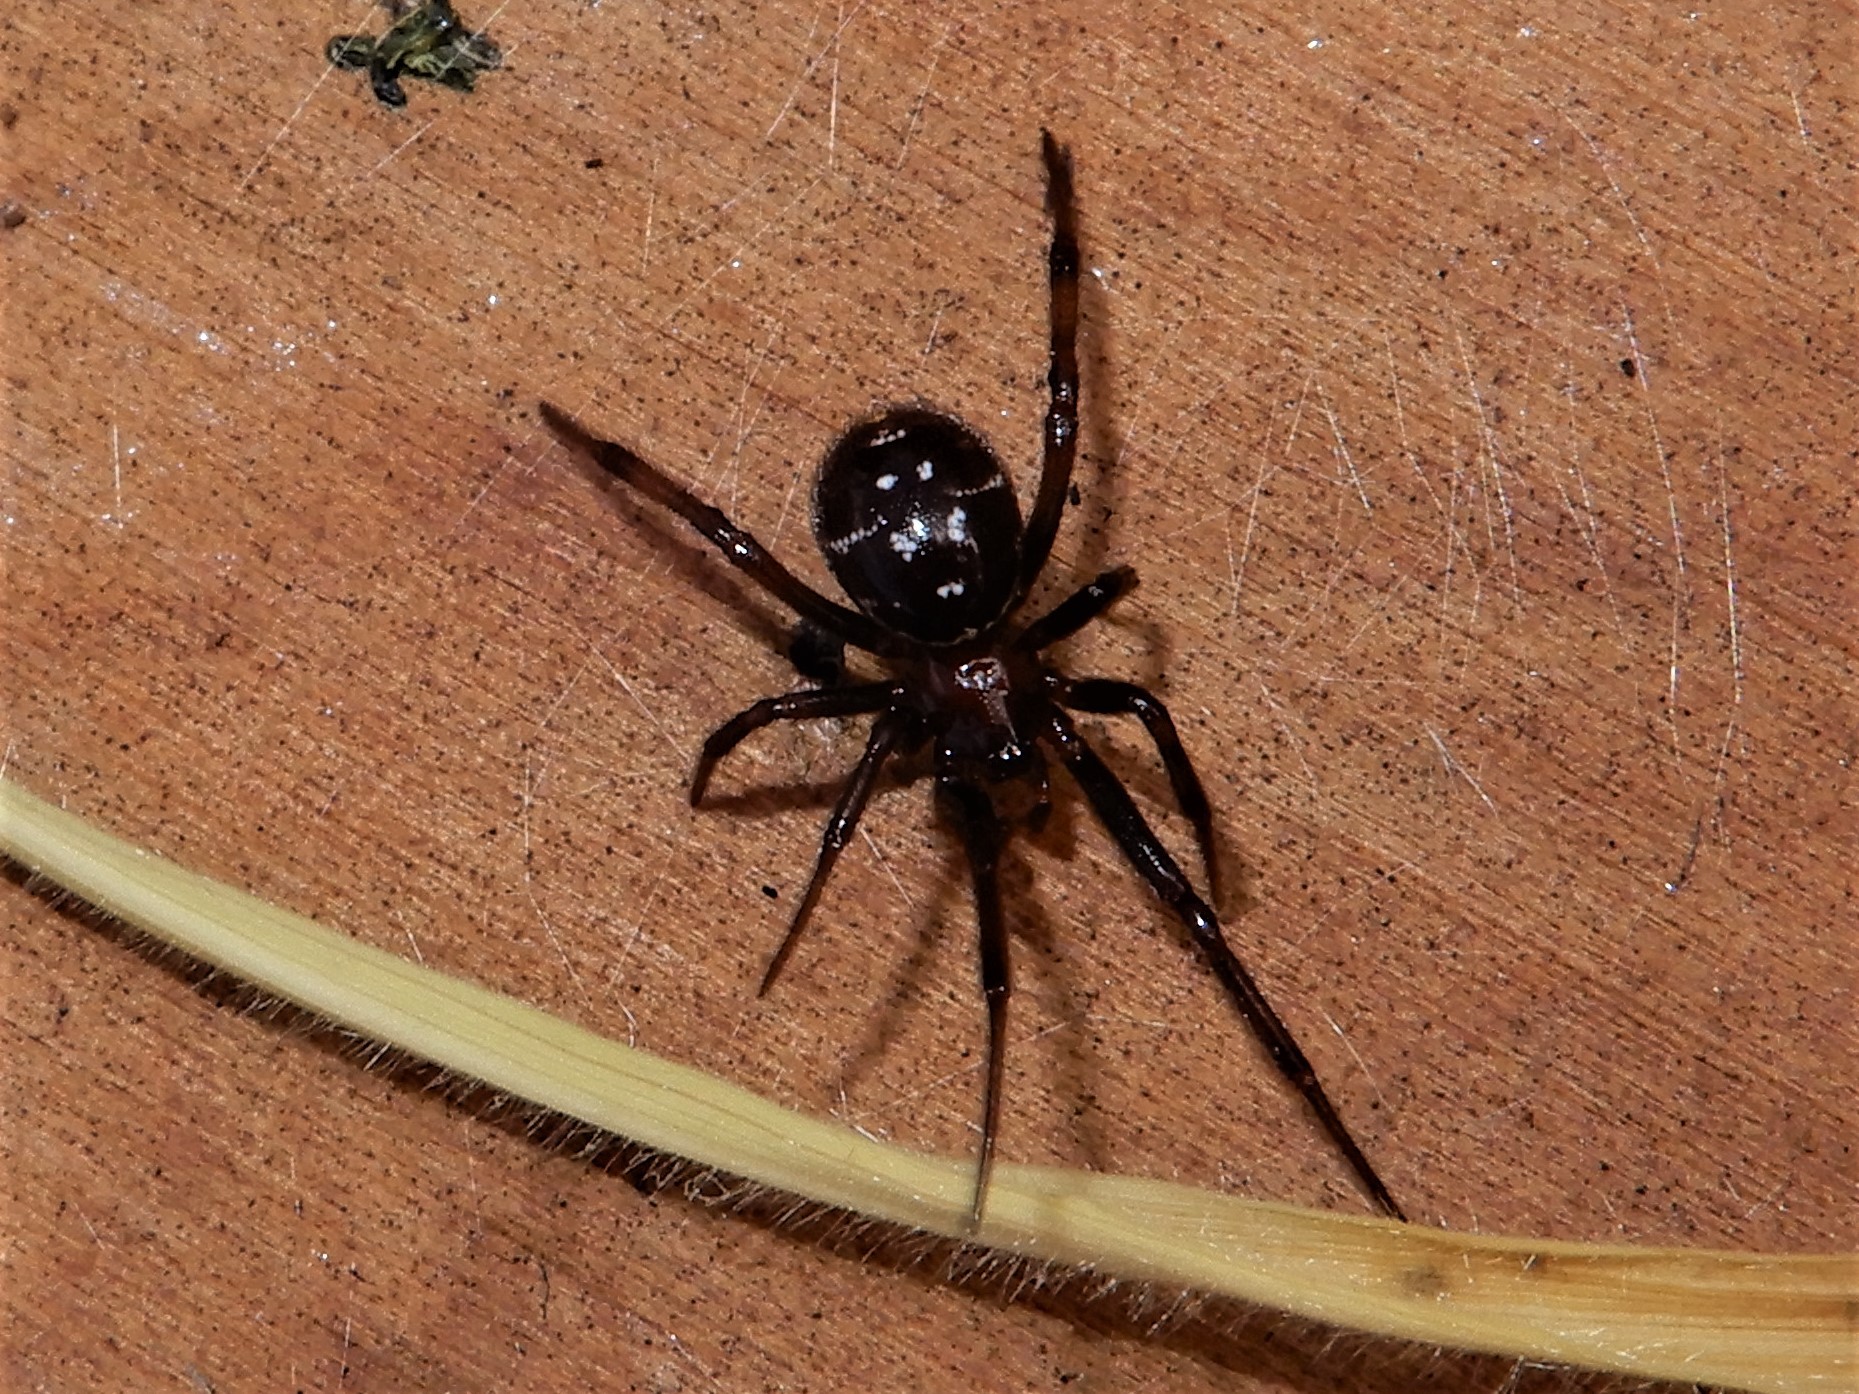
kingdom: Animalia
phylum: Arthropoda
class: Arachnida
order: Araneae
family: Theridiidae
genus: Steatoda
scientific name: Steatoda capensis
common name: Cobweb weaver
